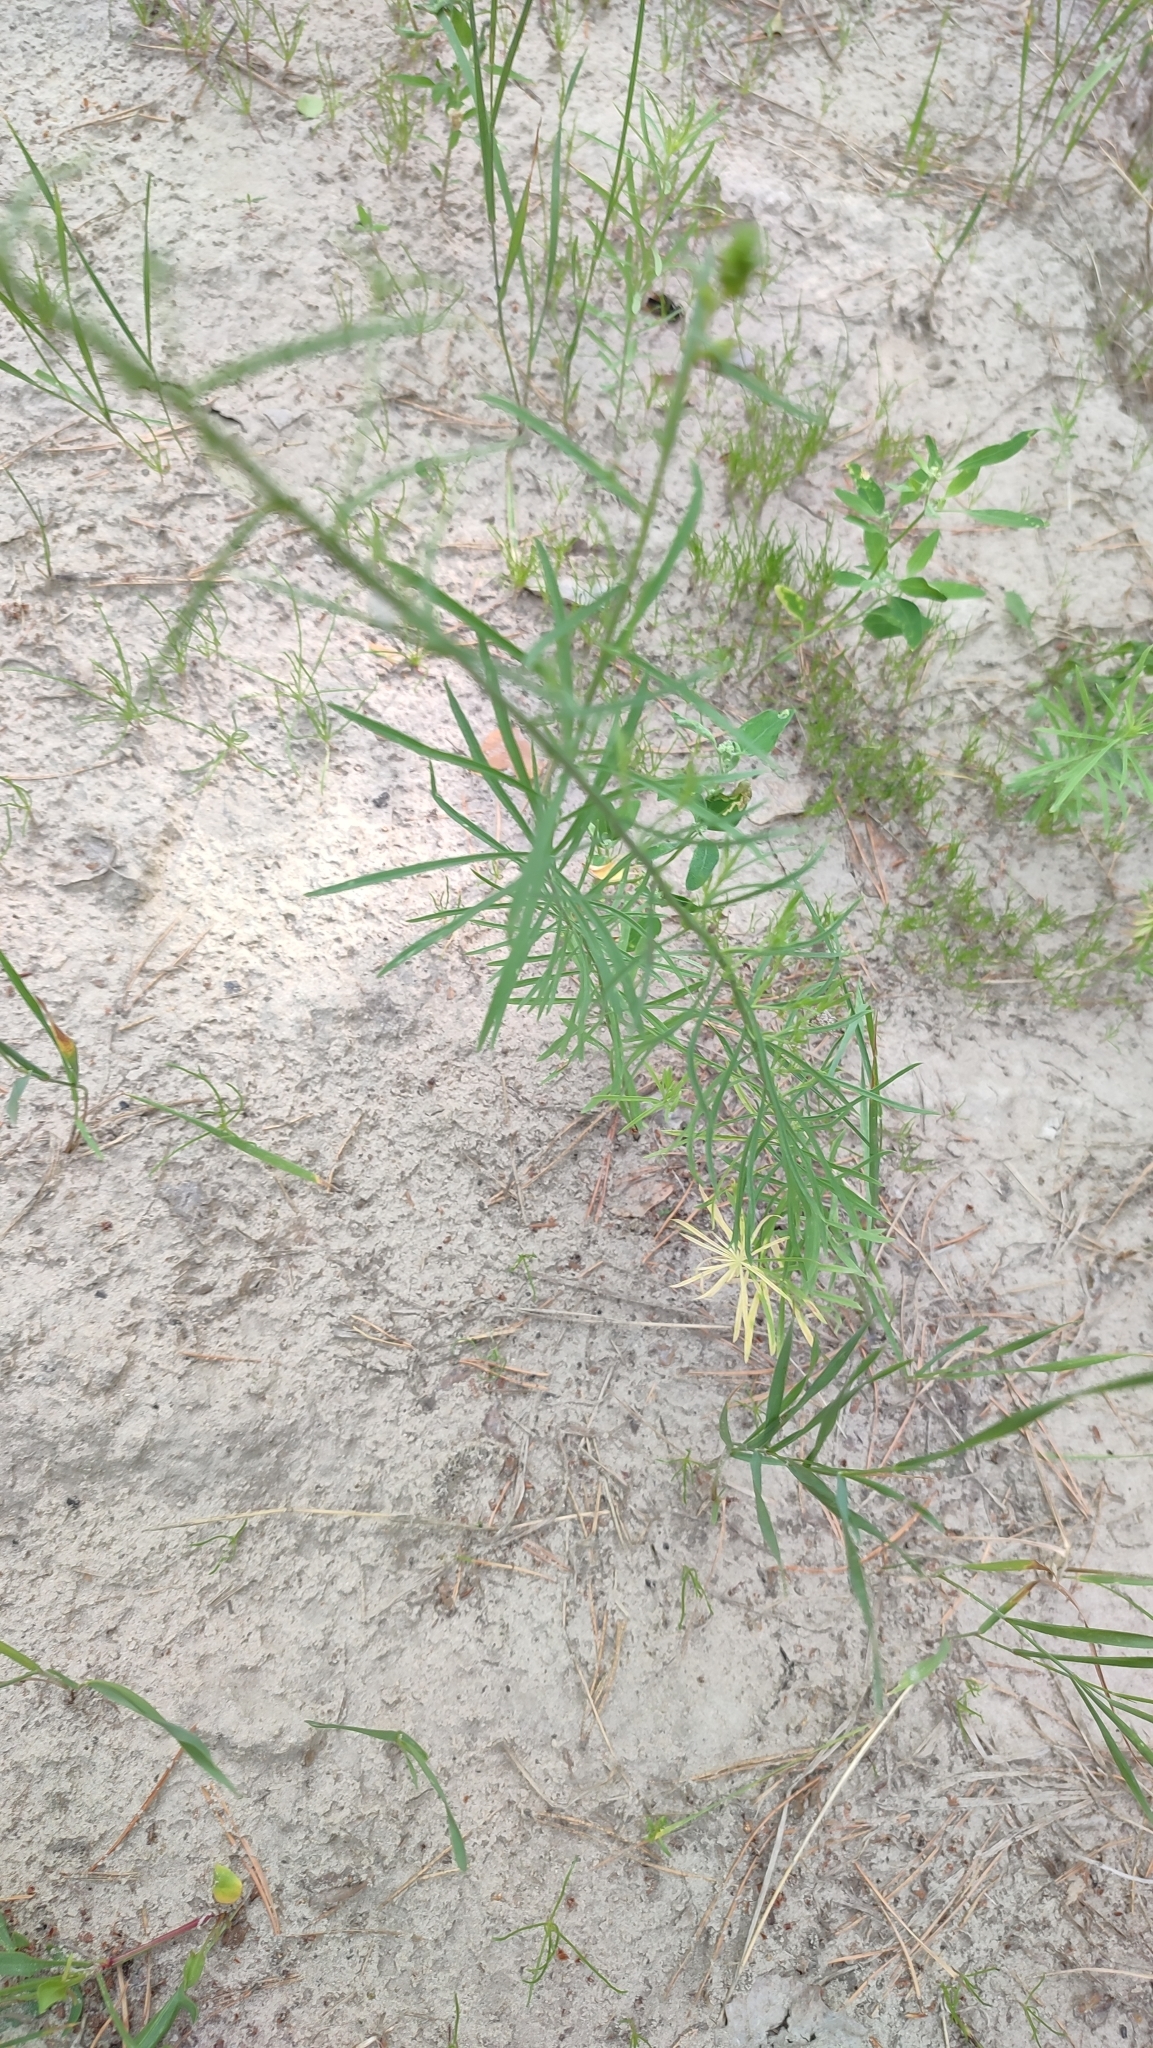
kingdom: Plantae
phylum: Tracheophyta
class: Magnoliopsida
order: Lamiales
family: Plantaginaceae
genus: Linaria
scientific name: Linaria vulgaris
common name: Butter and eggs
